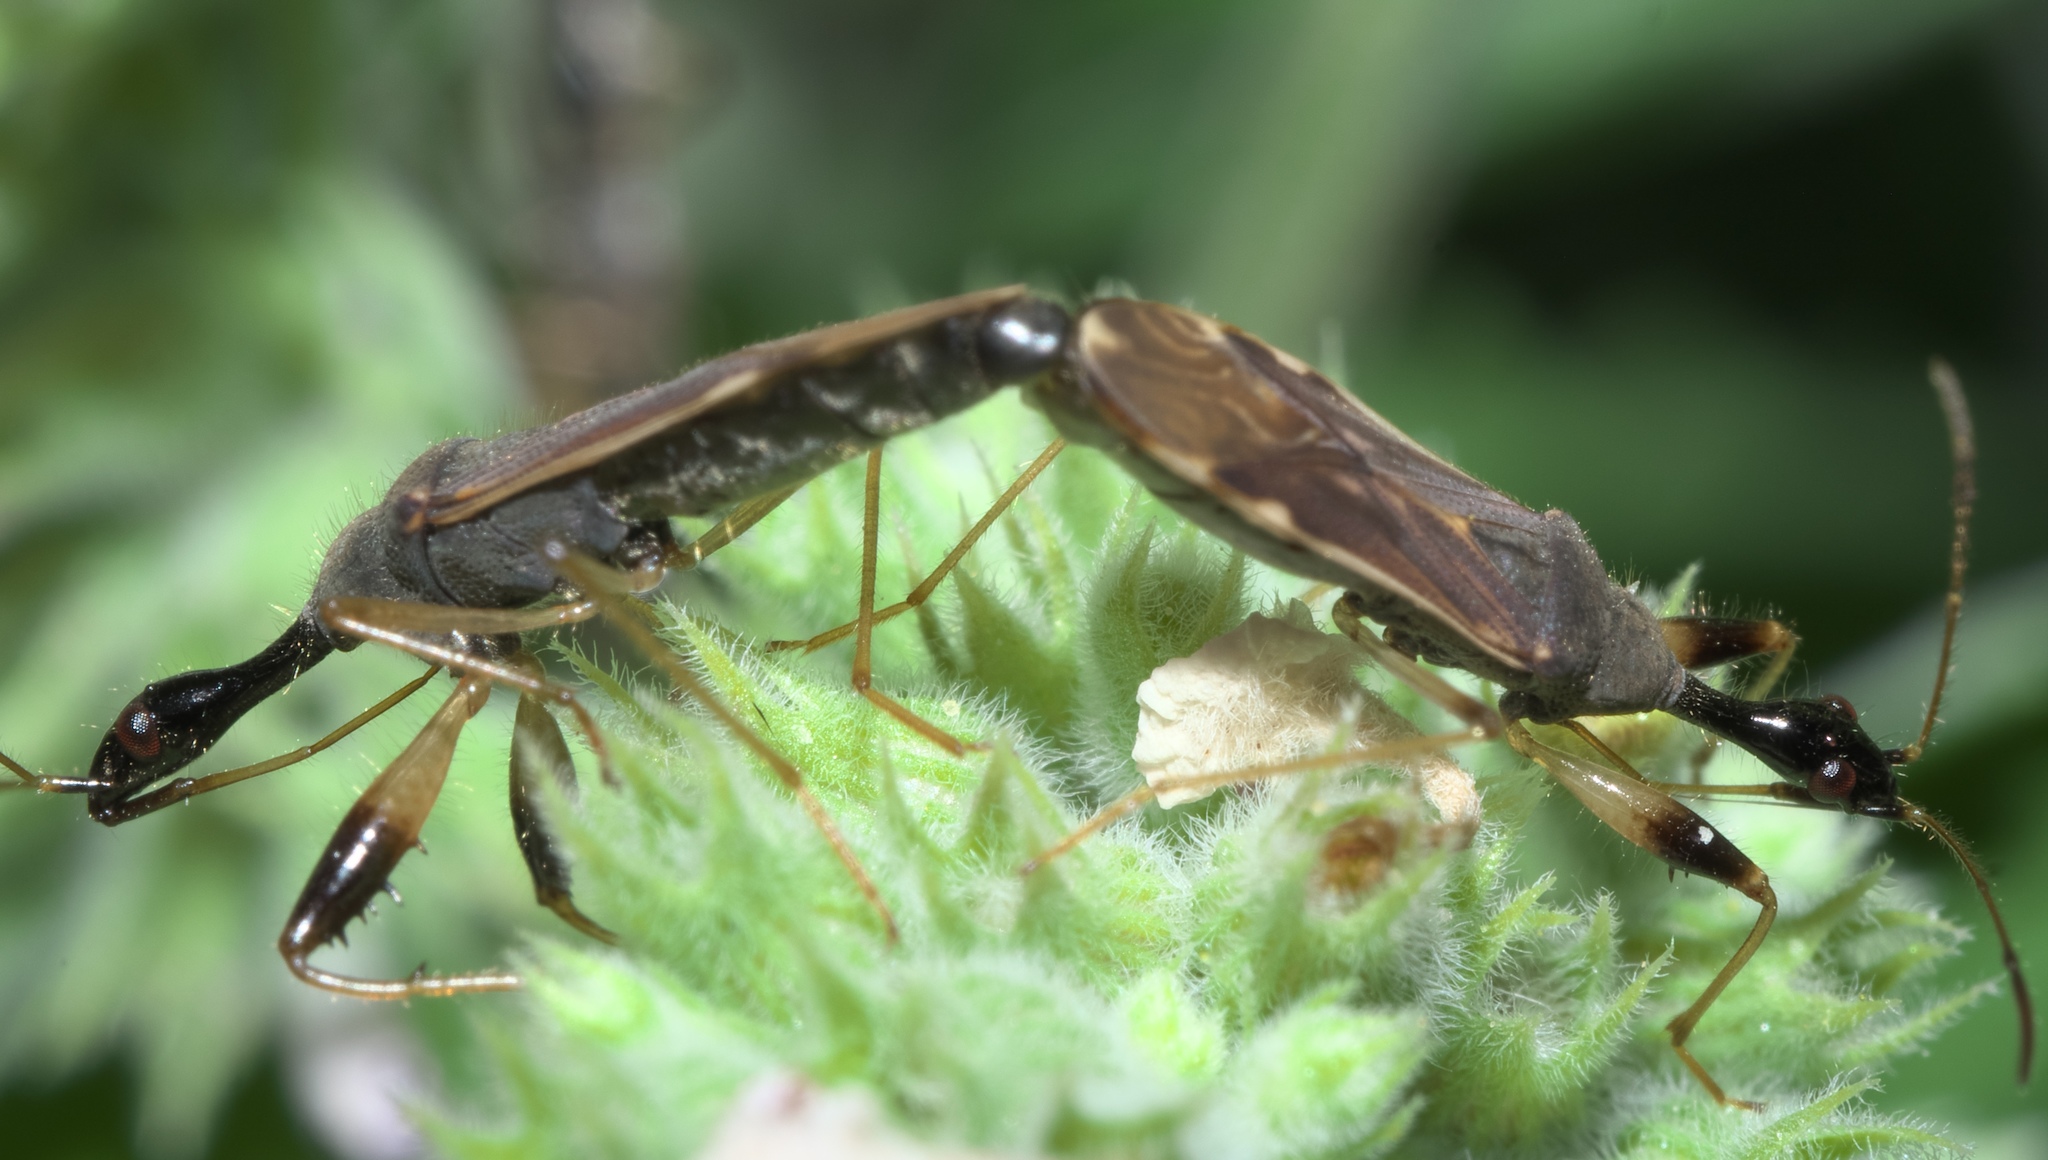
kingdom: Animalia
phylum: Arthropoda
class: Insecta
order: Hemiptera
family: Rhyparochromidae
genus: Myodocha
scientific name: Myodocha serripes
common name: Long-necked seed bug
